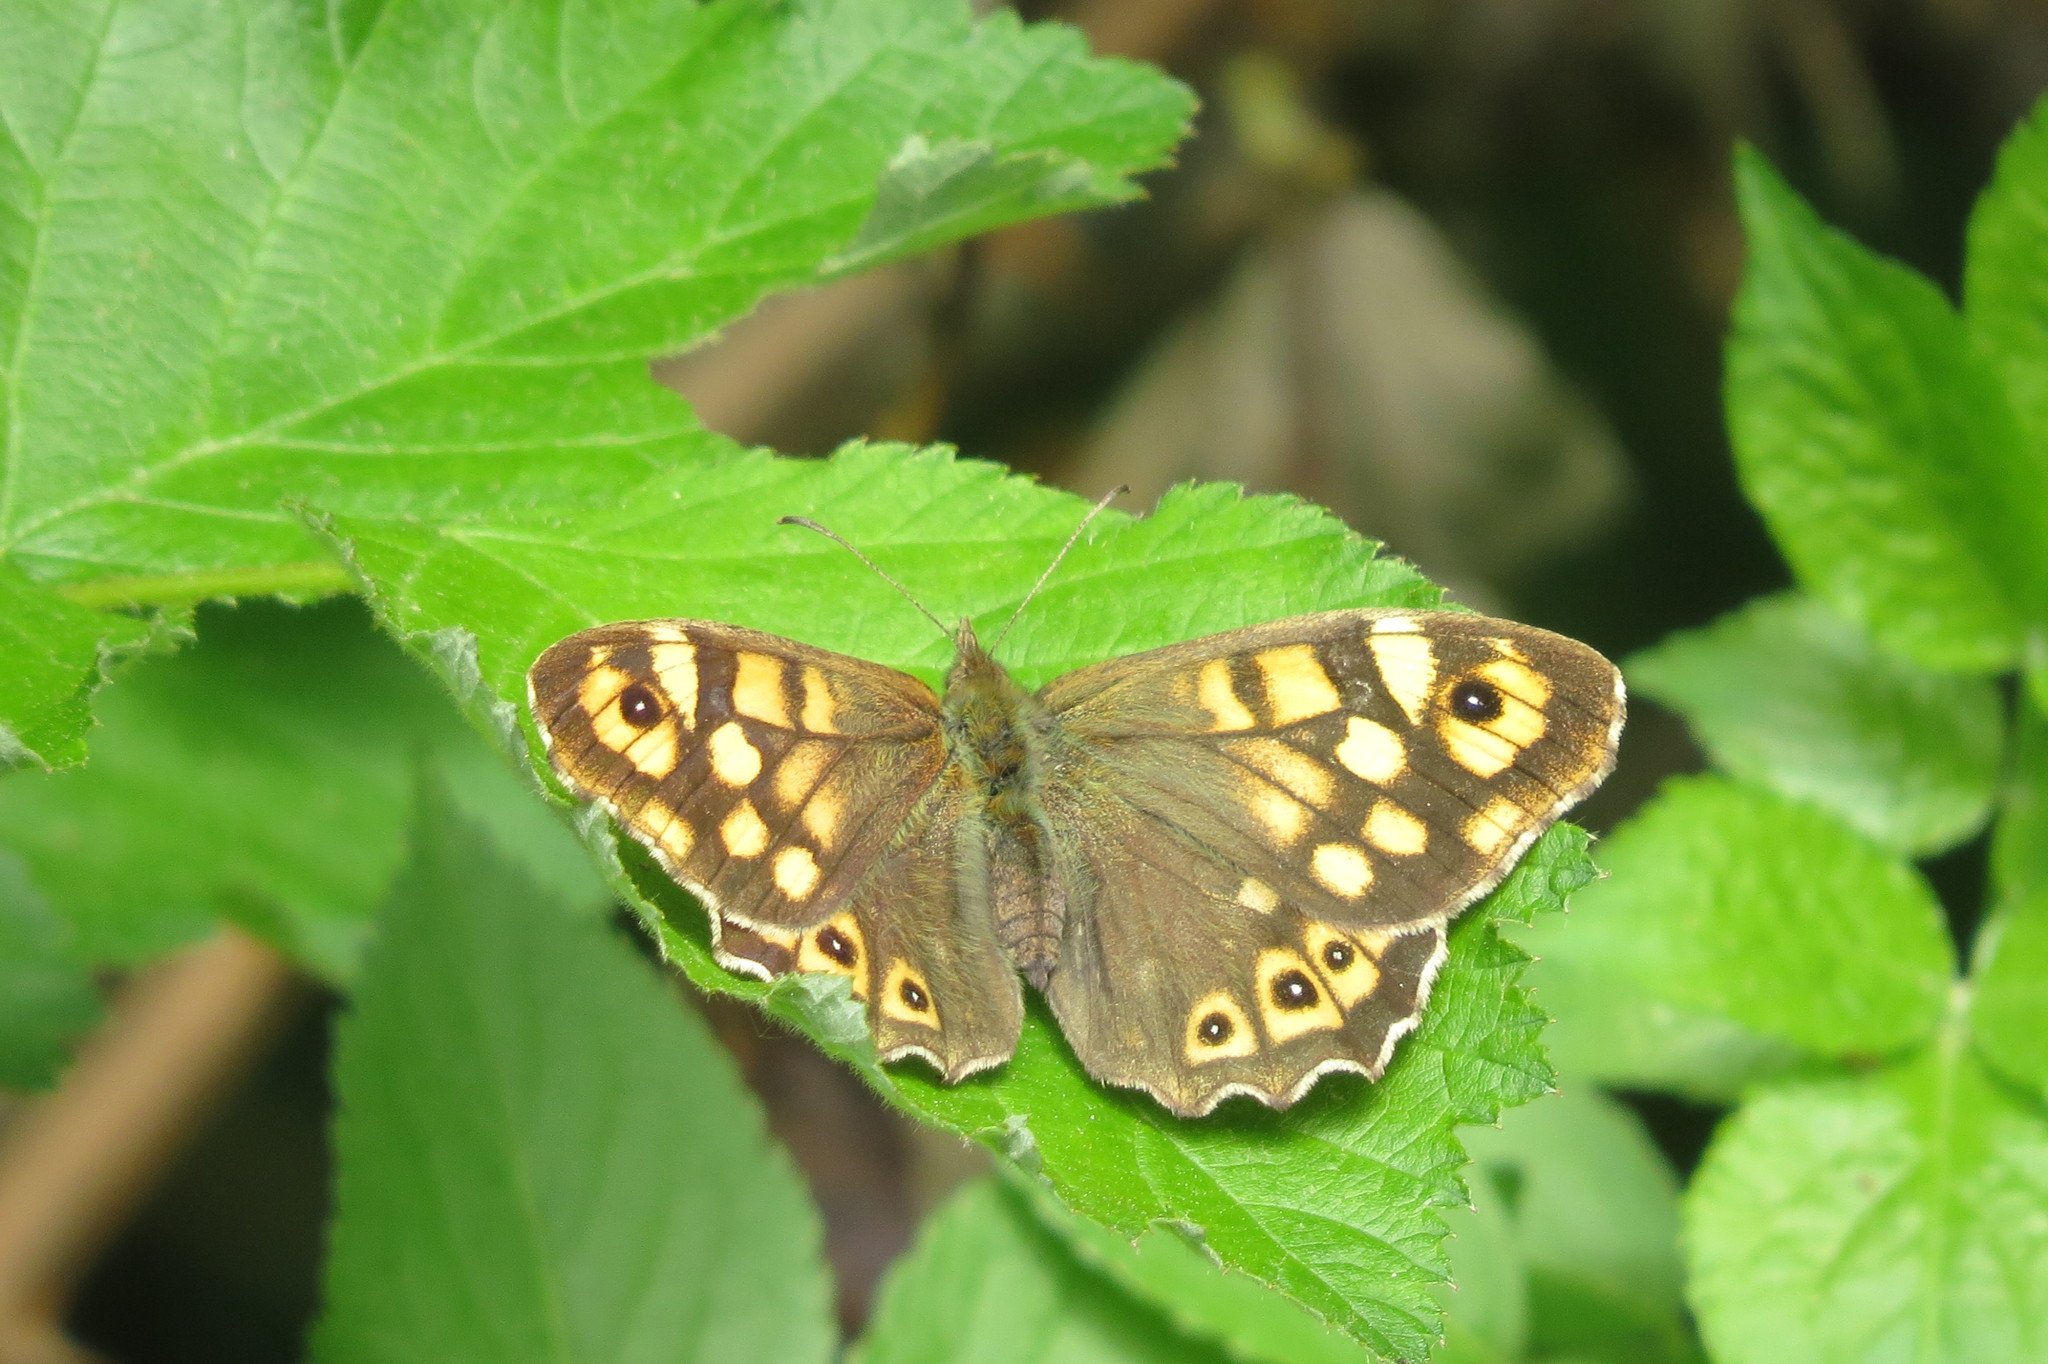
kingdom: Animalia
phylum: Arthropoda
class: Insecta
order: Lepidoptera
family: Nymphalidae
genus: Pararge
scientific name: Pararge aegeria
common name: Speckled wood
